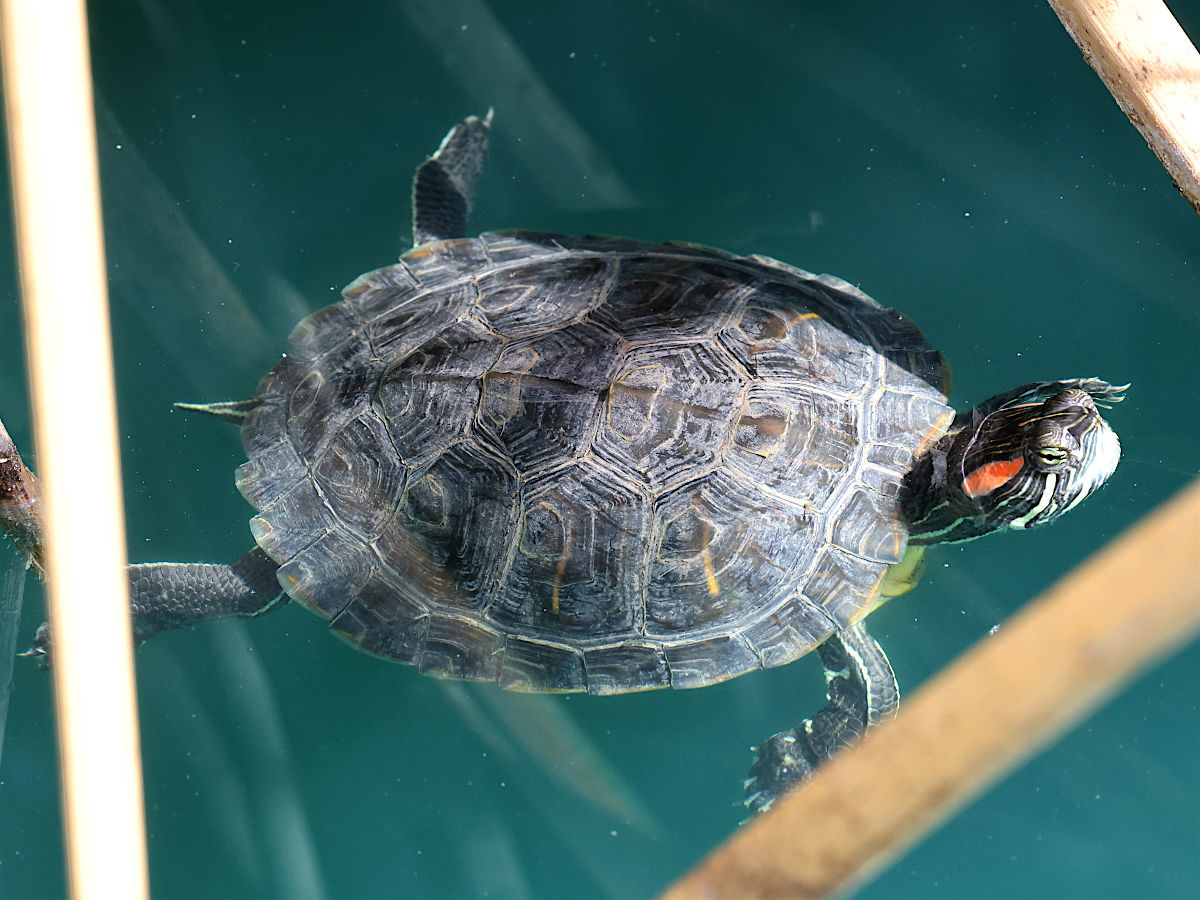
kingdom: Animalia
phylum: Chordata
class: Testudines
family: Emydidae
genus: Trachemys
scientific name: Trachemys scripta
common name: Slider
